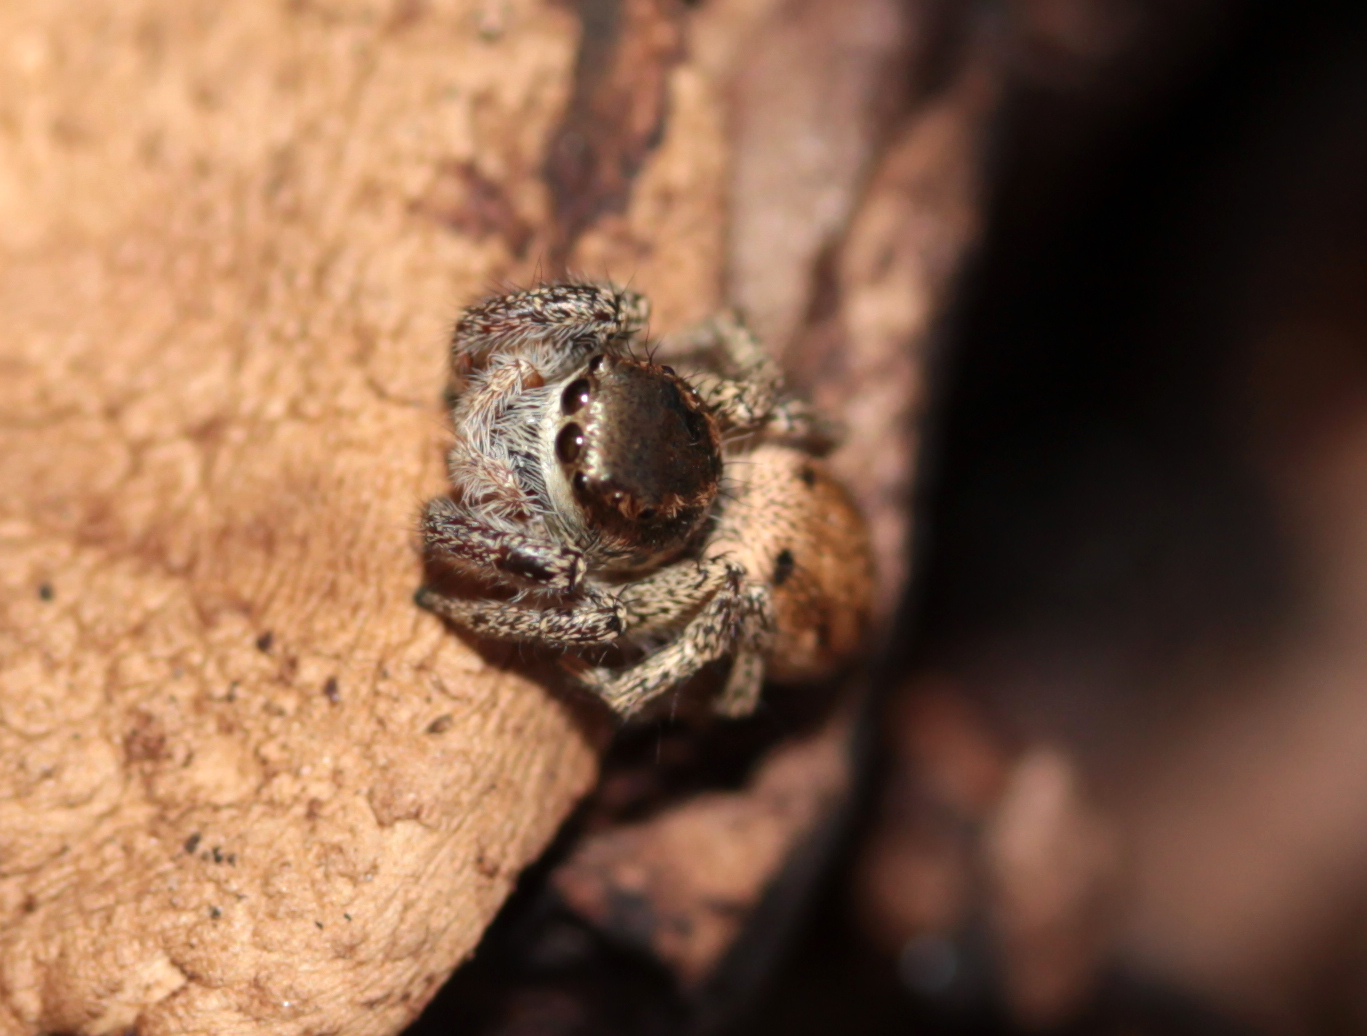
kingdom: Animalia
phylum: Arthropoda
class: Arachnida
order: Araneae
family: Salticidae
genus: Habronattus
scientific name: Habronattus pyrrithrix
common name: Jumping spider
